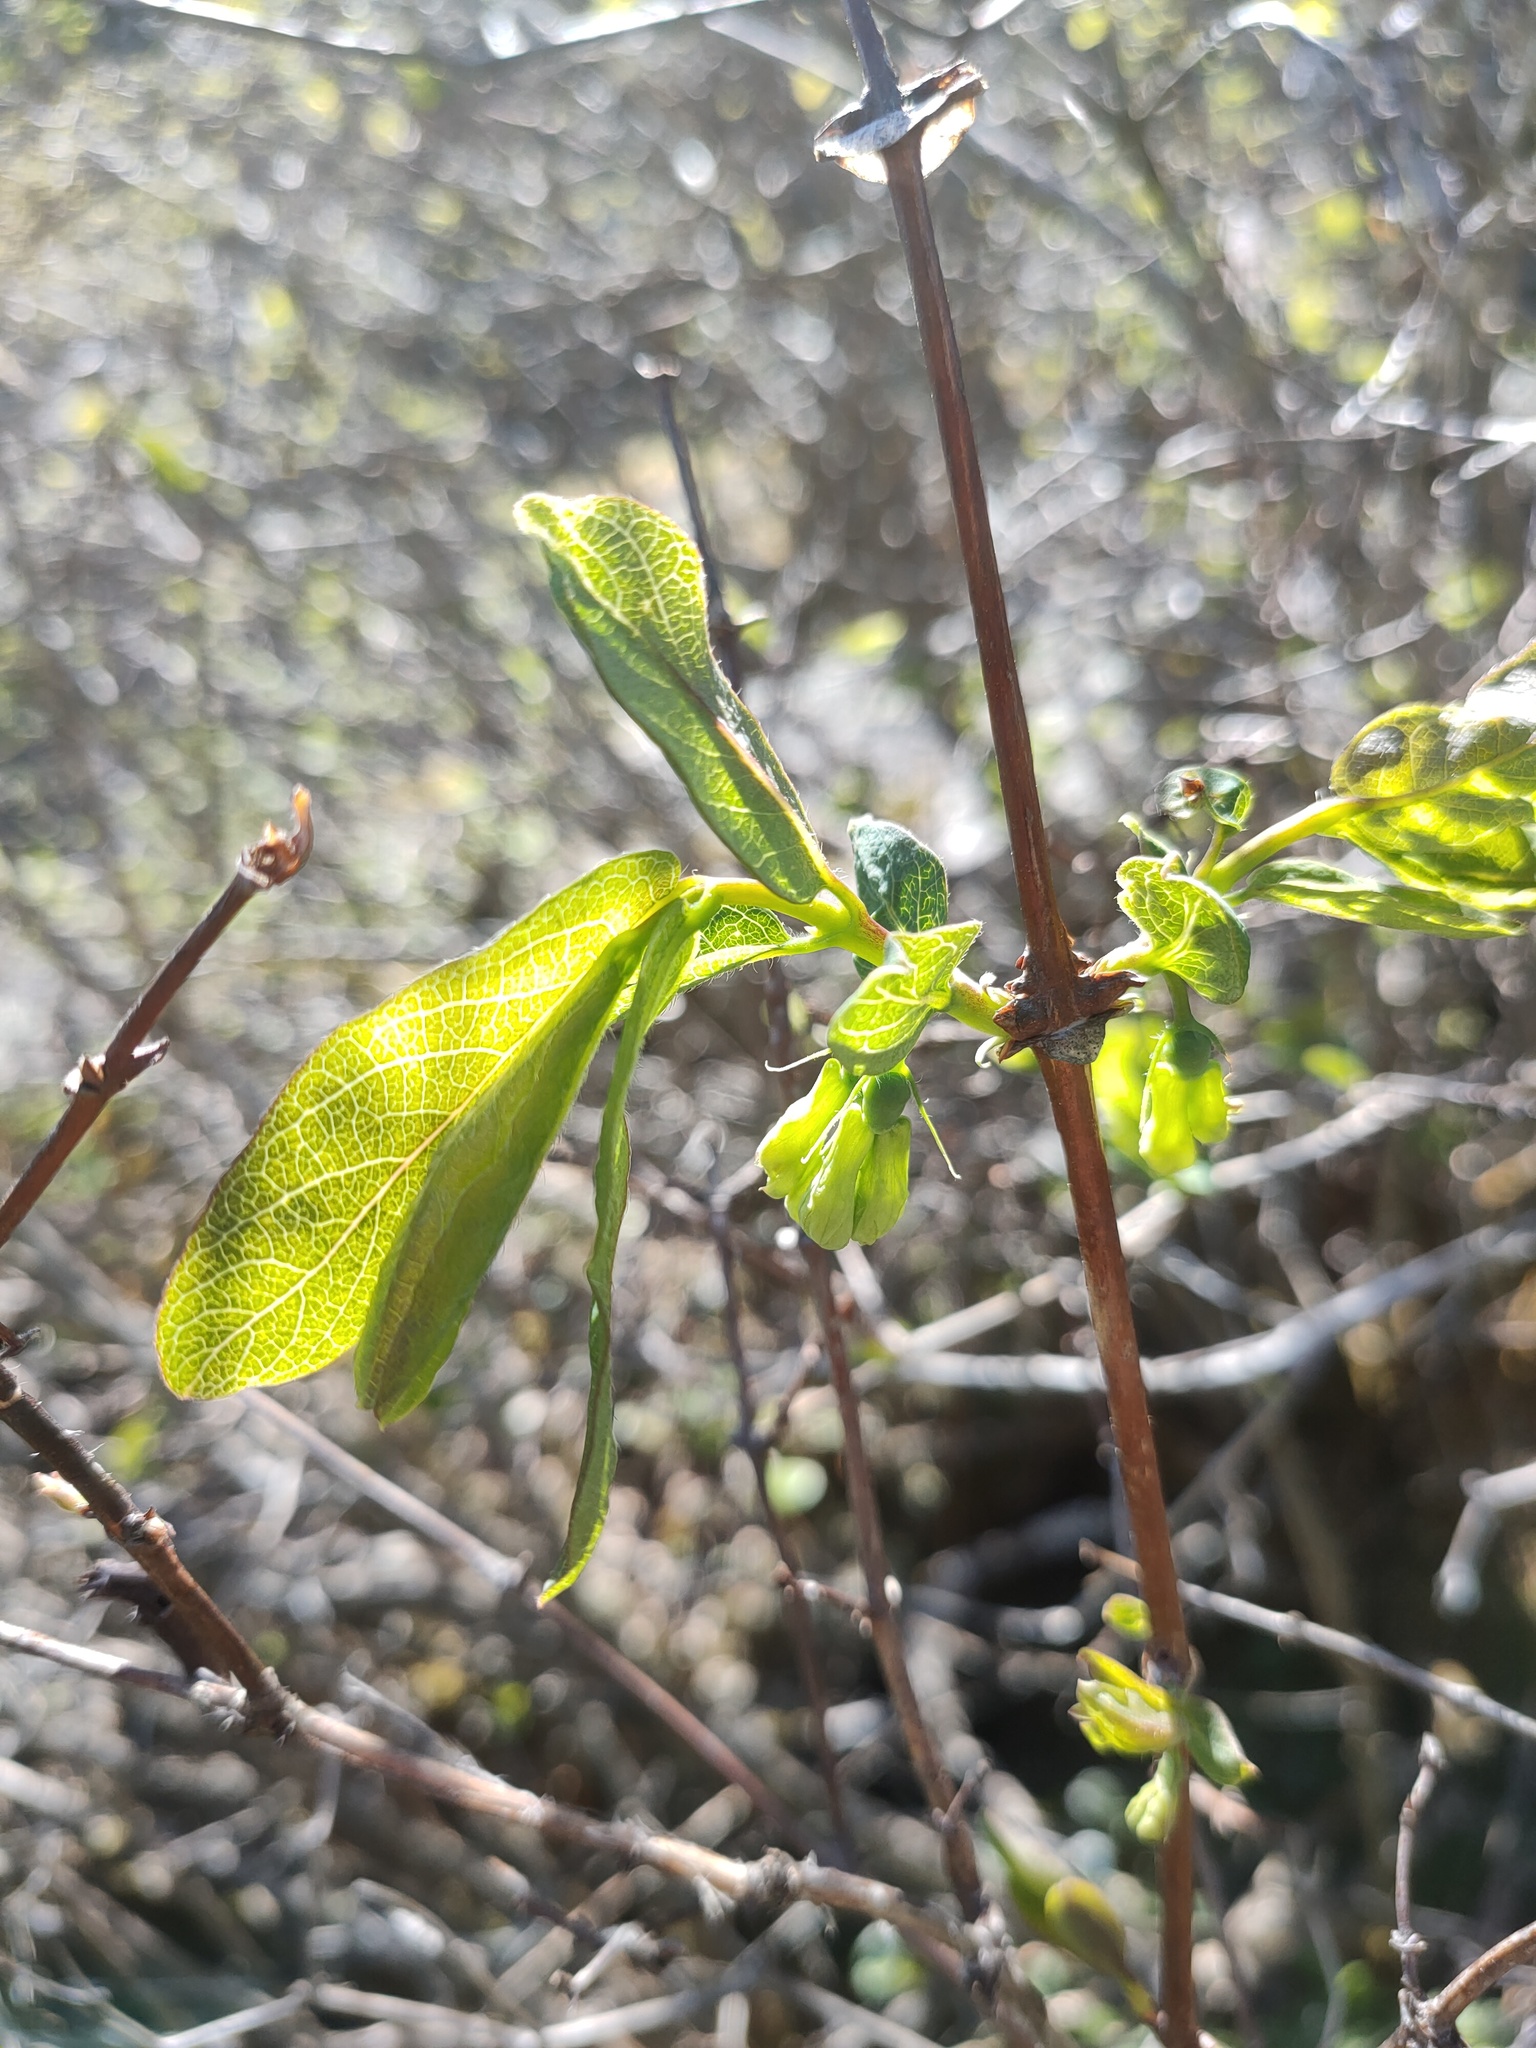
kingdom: Plantae
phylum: Tracheophyta
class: Magnoliopsida
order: Dipsacales
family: Caprifoliaceae
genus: Lonicera
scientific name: Lonicera caerulea
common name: Blue honeysuckle
